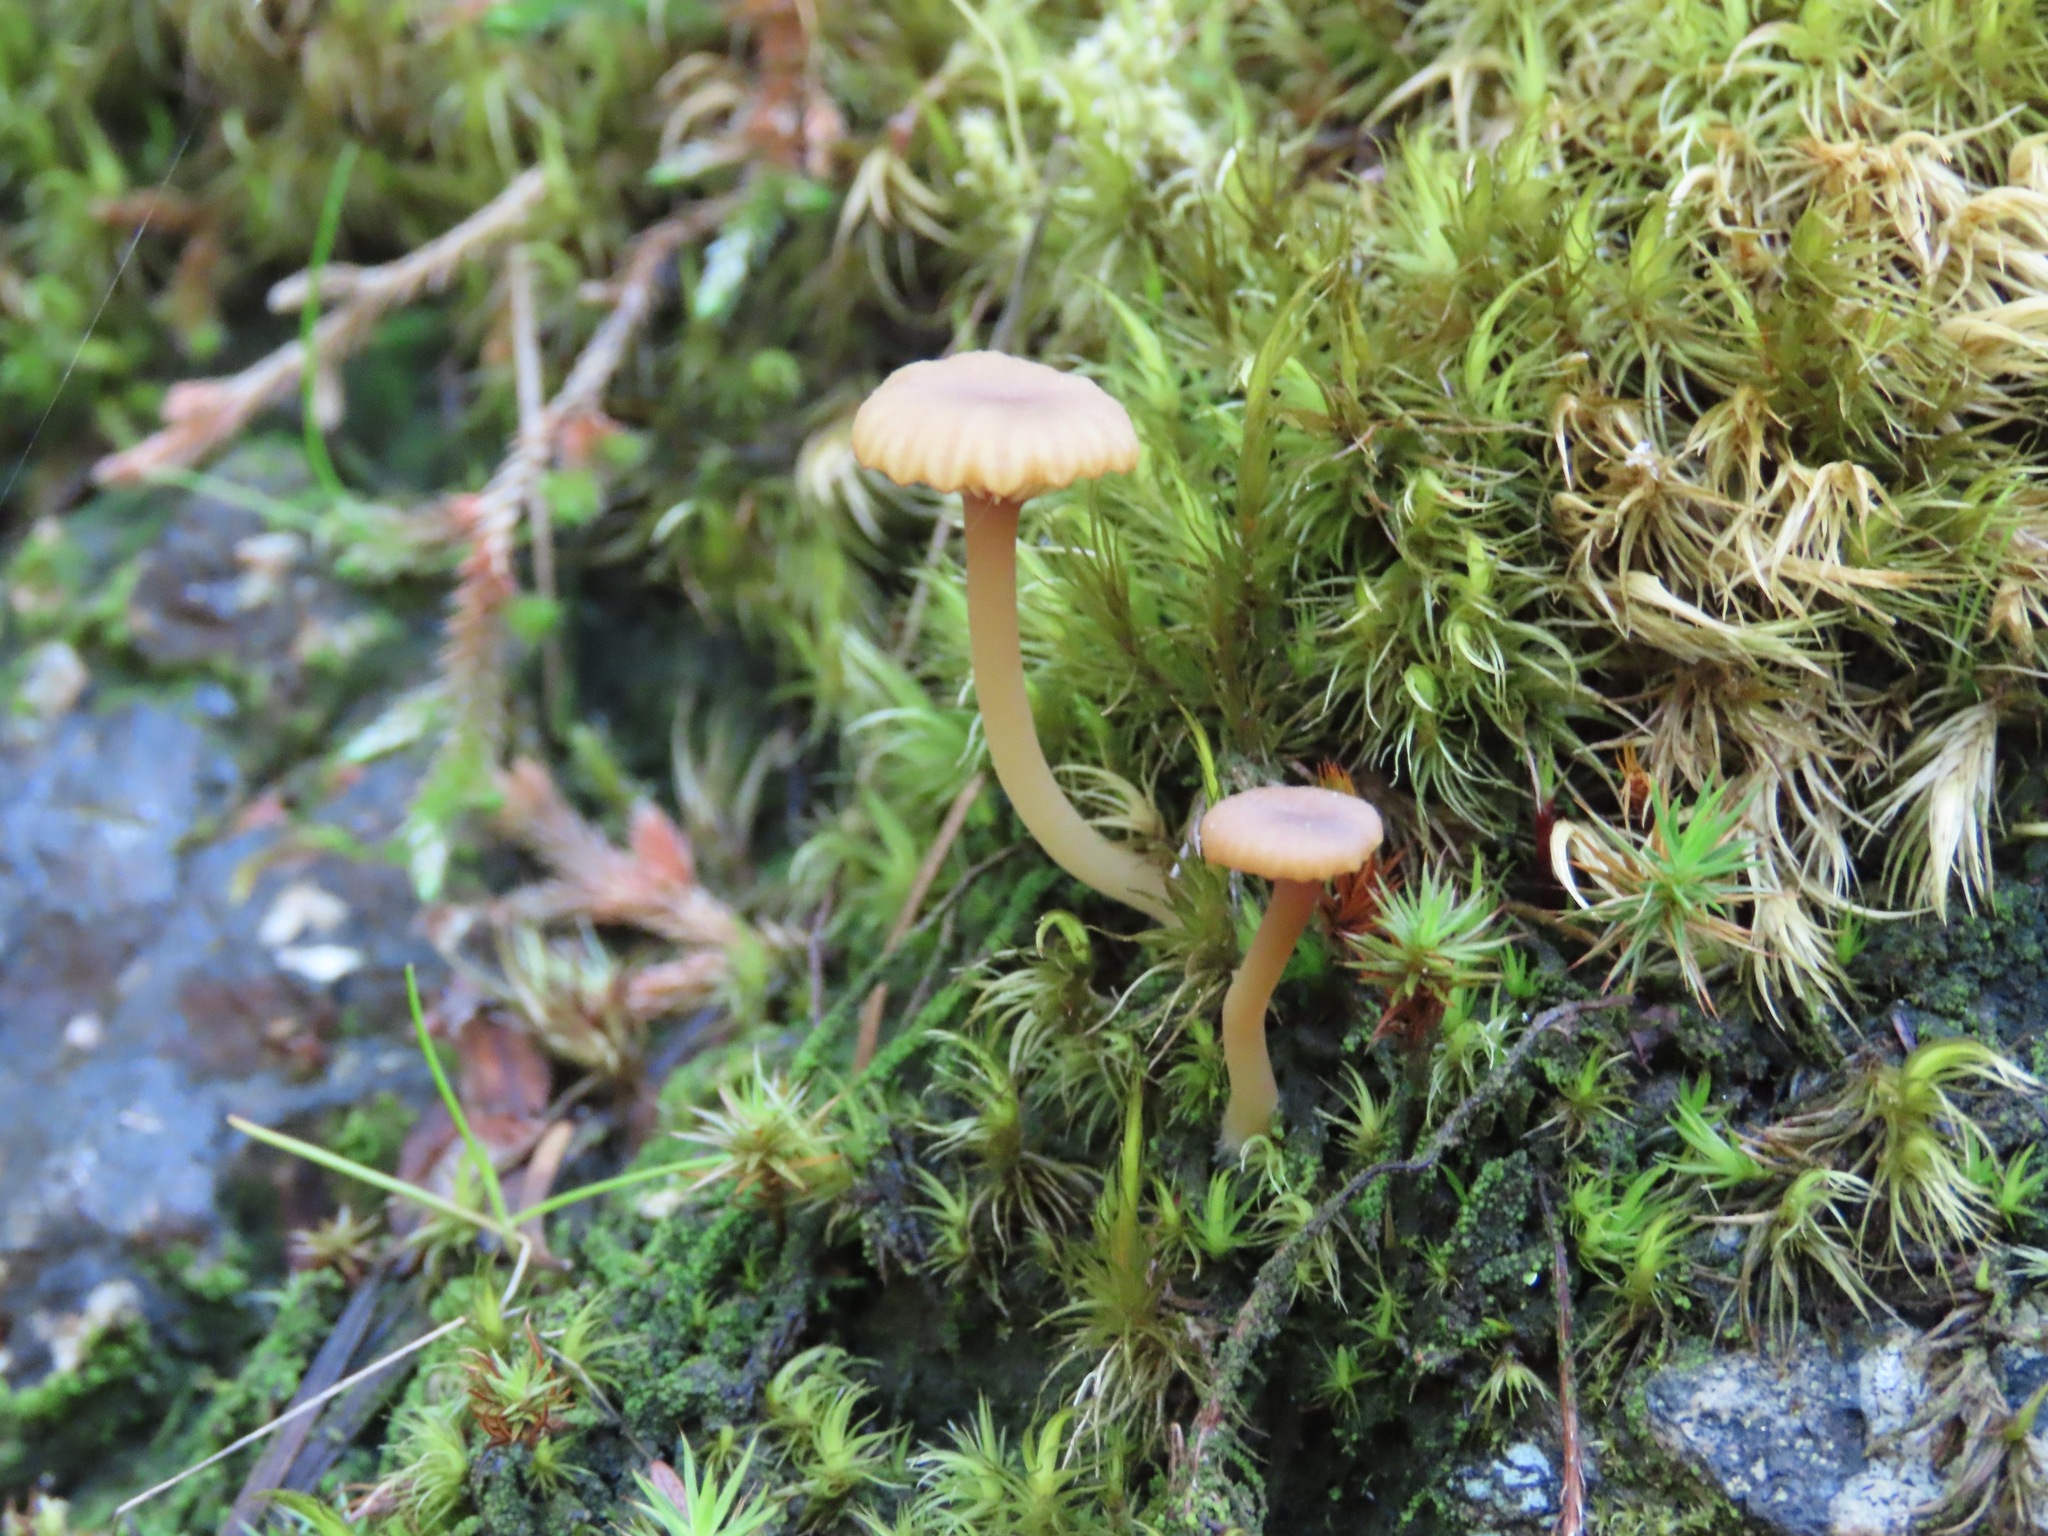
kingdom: Fungi
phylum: Basidiomycota
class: Agaricomycetes
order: Agaricales
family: Hygrophoraceae
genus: Lichenomphalia
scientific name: Lichenomphalia
